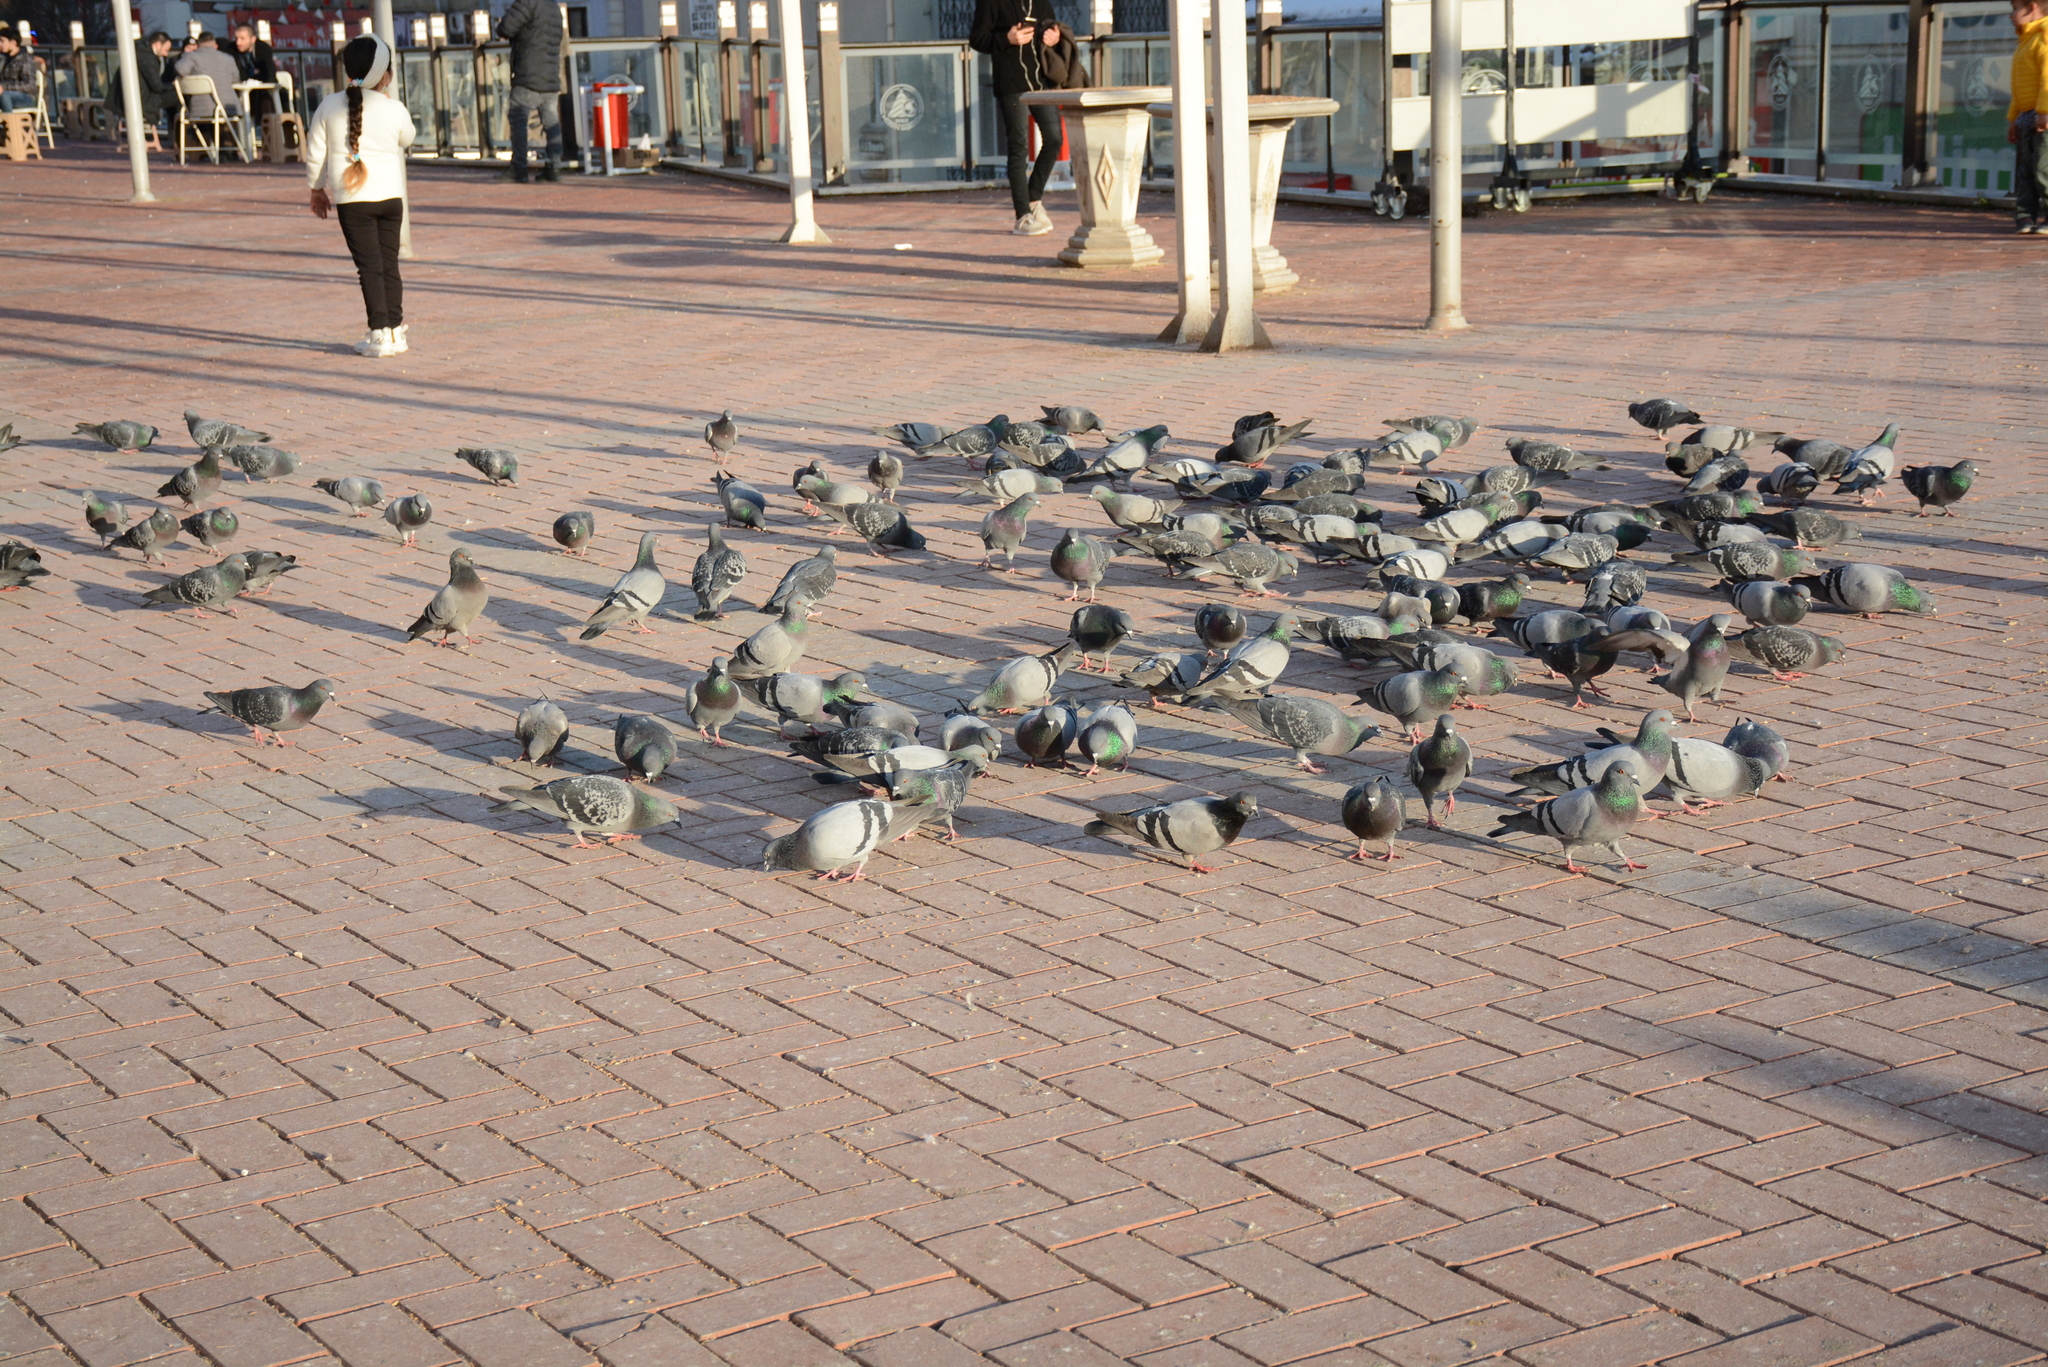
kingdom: Animalia
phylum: Chordata
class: Aves
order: Columbiformes
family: Columbidae
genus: Columba
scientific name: Columba livia
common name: Rock pigeon
